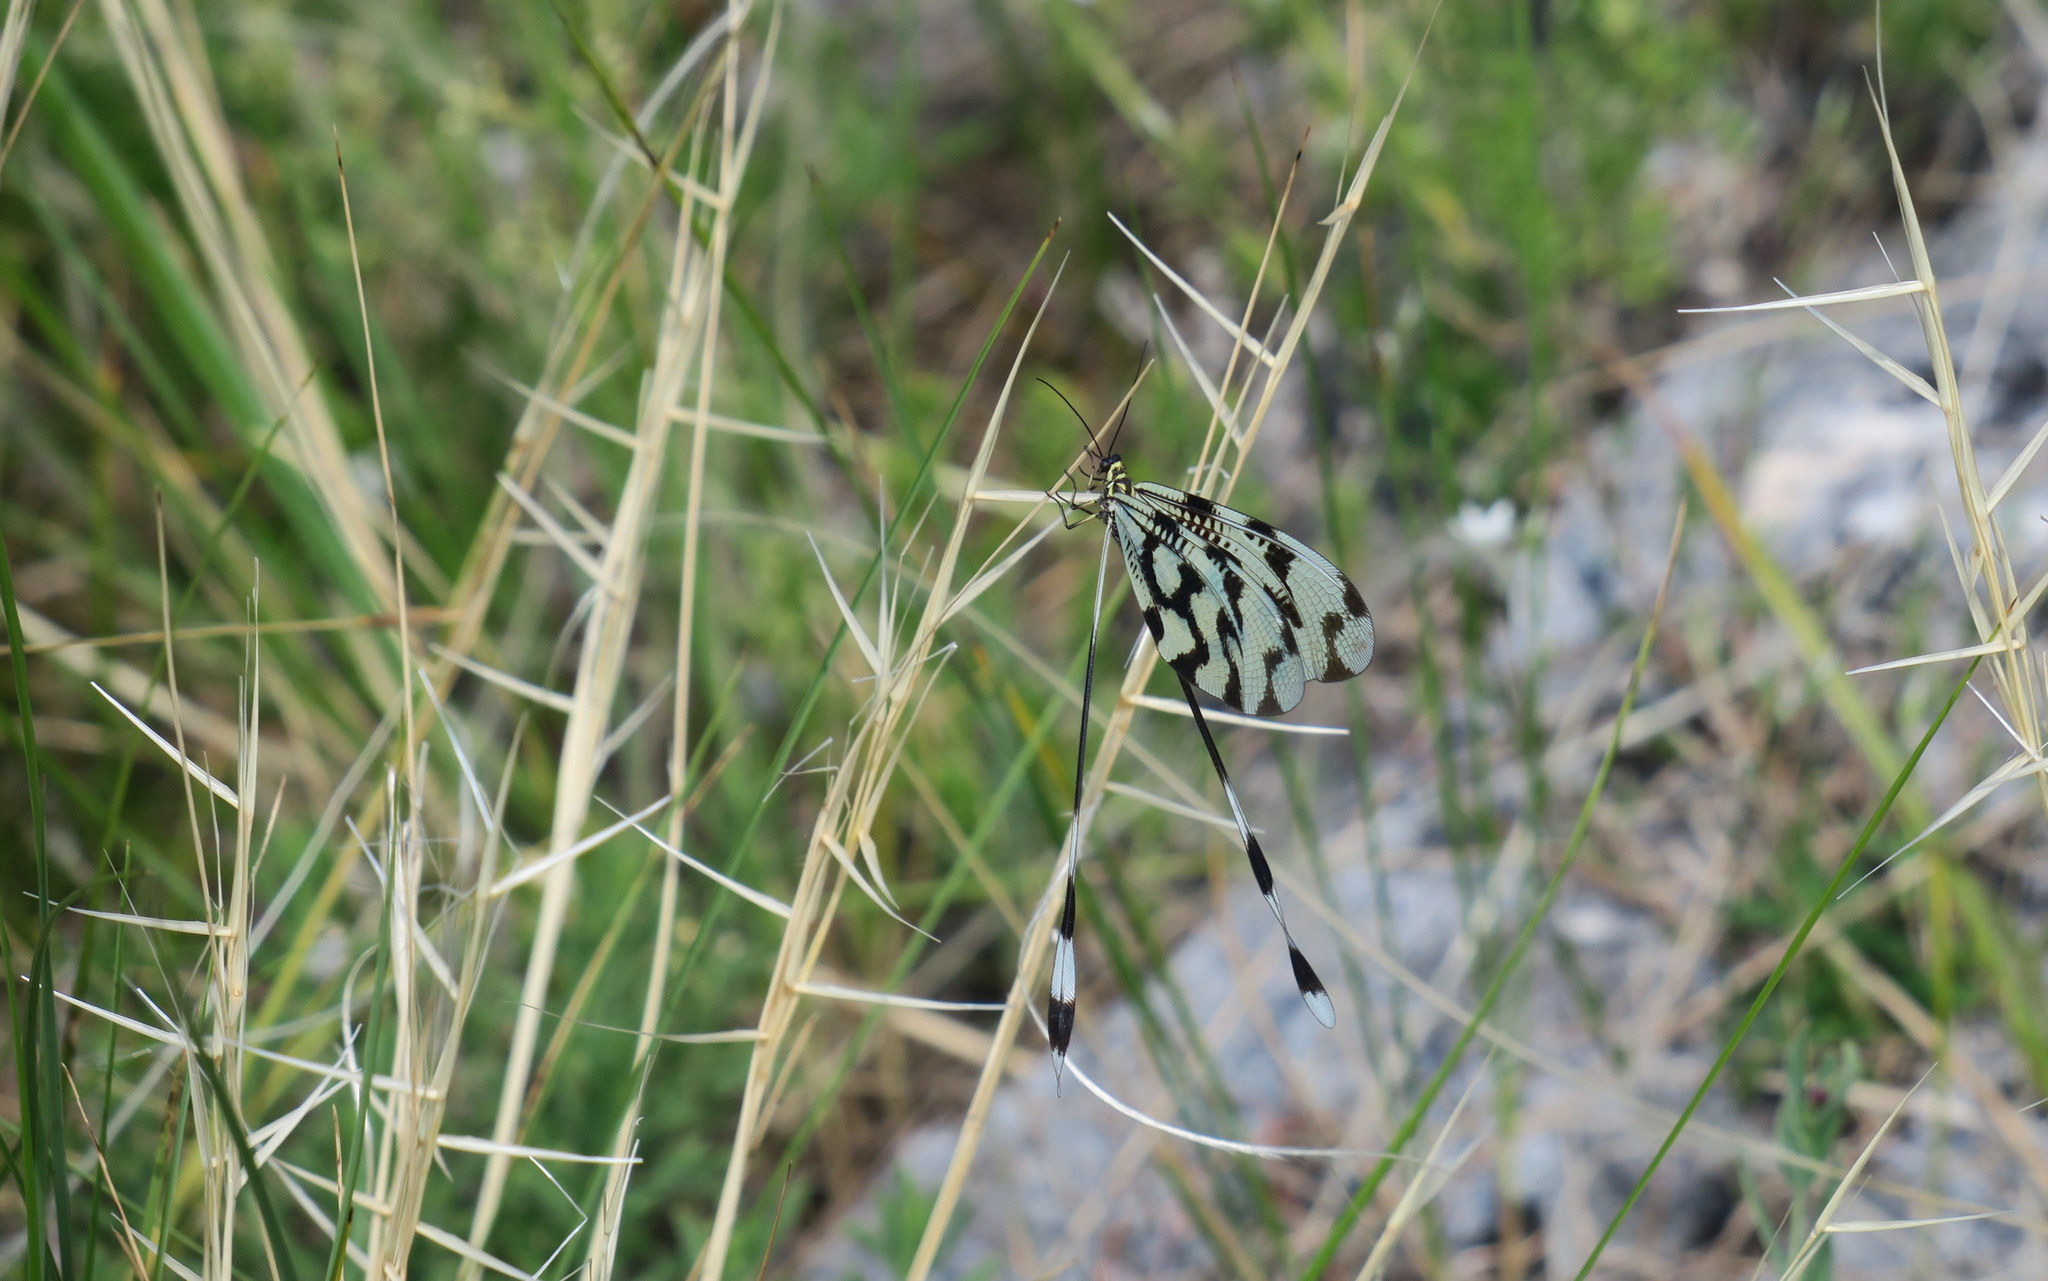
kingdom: Animalia
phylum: Arthropoda
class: Insecta
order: Neuroptera
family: Nemopteridae
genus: Nemoptera
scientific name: Nemoptera sinuata
